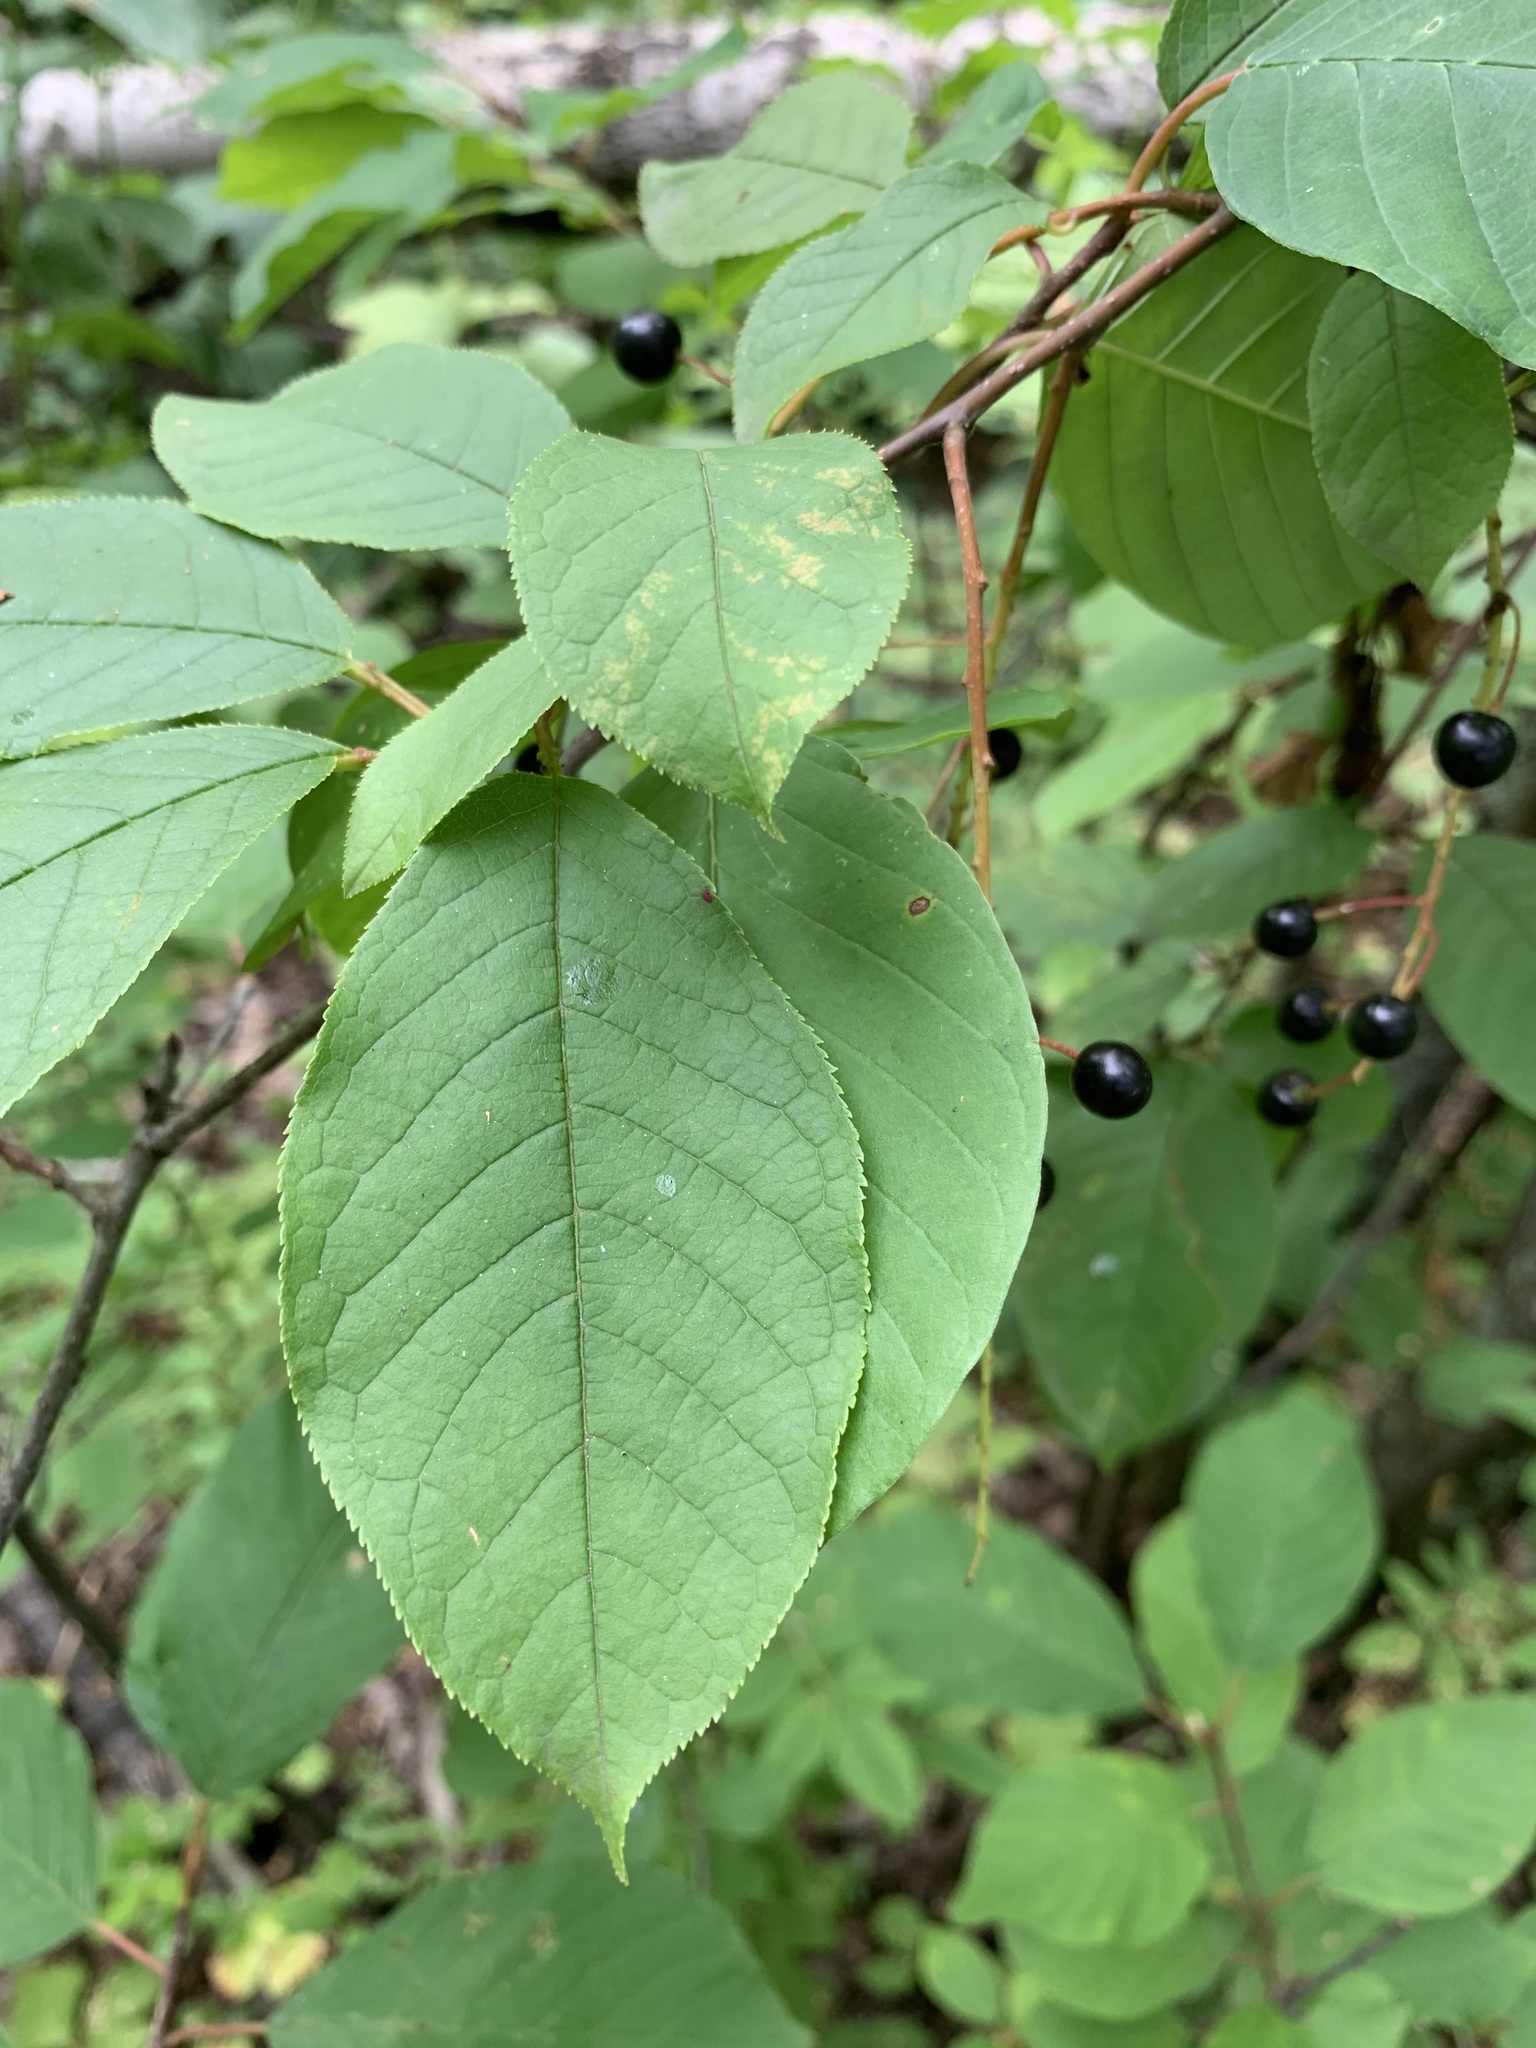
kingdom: Plantae
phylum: Tracheophyta
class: Magnoliopsida
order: Rosales
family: Rosaceae
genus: Prunus
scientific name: Prunus padus
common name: Bird cherry
